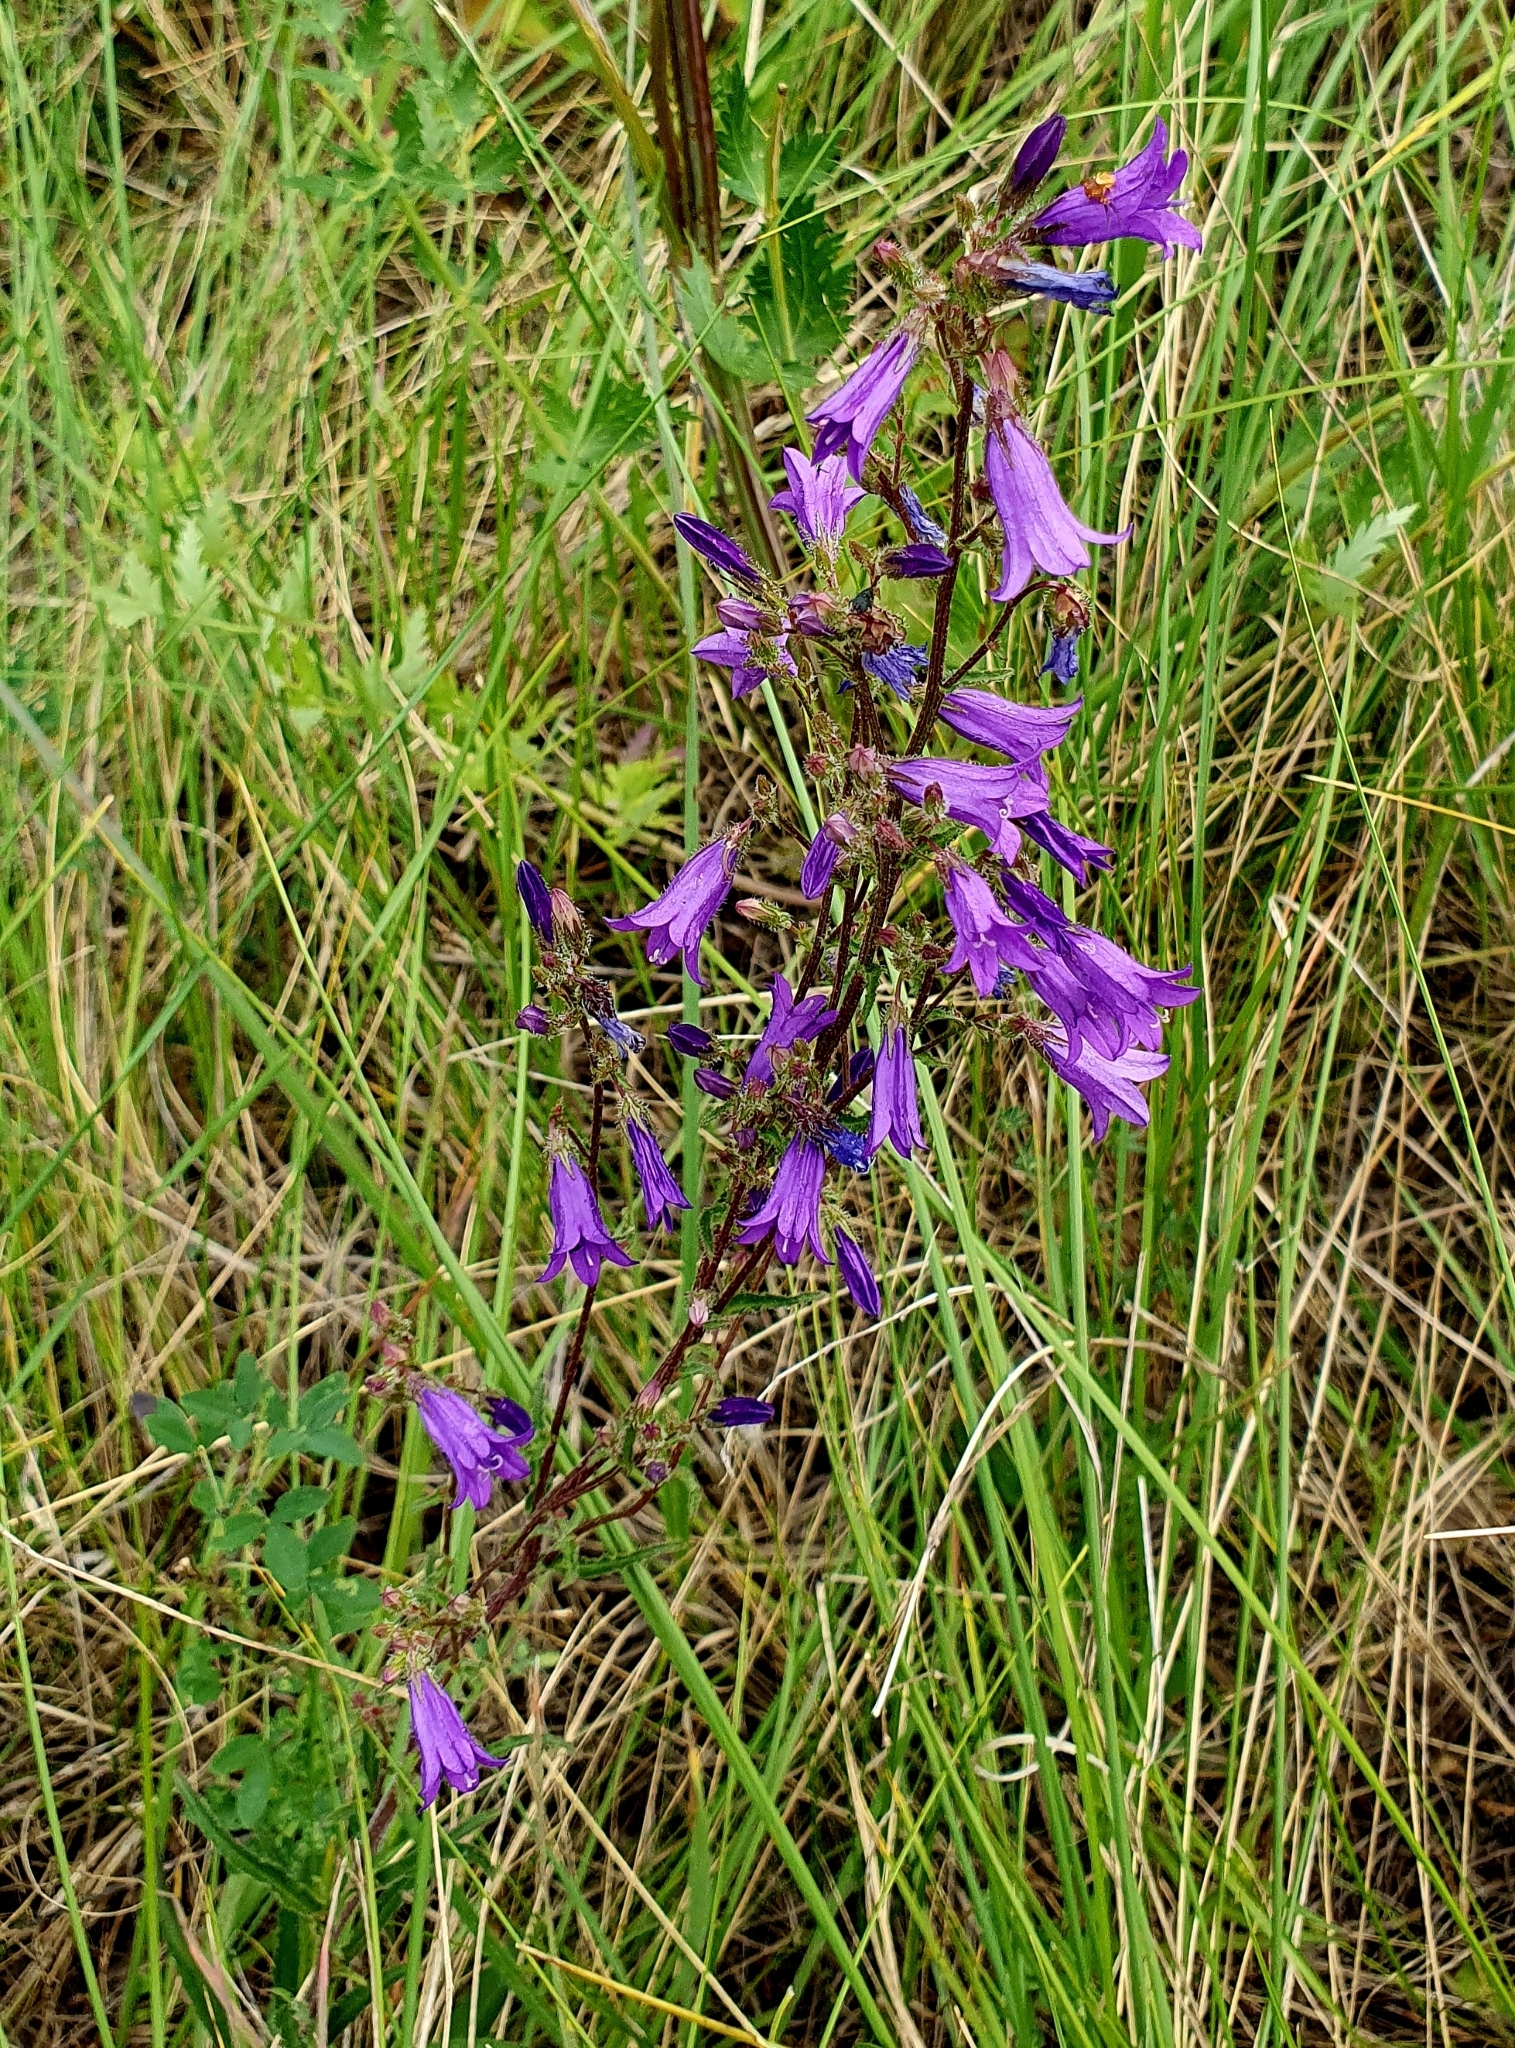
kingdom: Plantae
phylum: Tracheophyta
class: Magnoliopsida
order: Asterales
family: Campanulaceae
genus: Campanula
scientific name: Campanula sibirica
